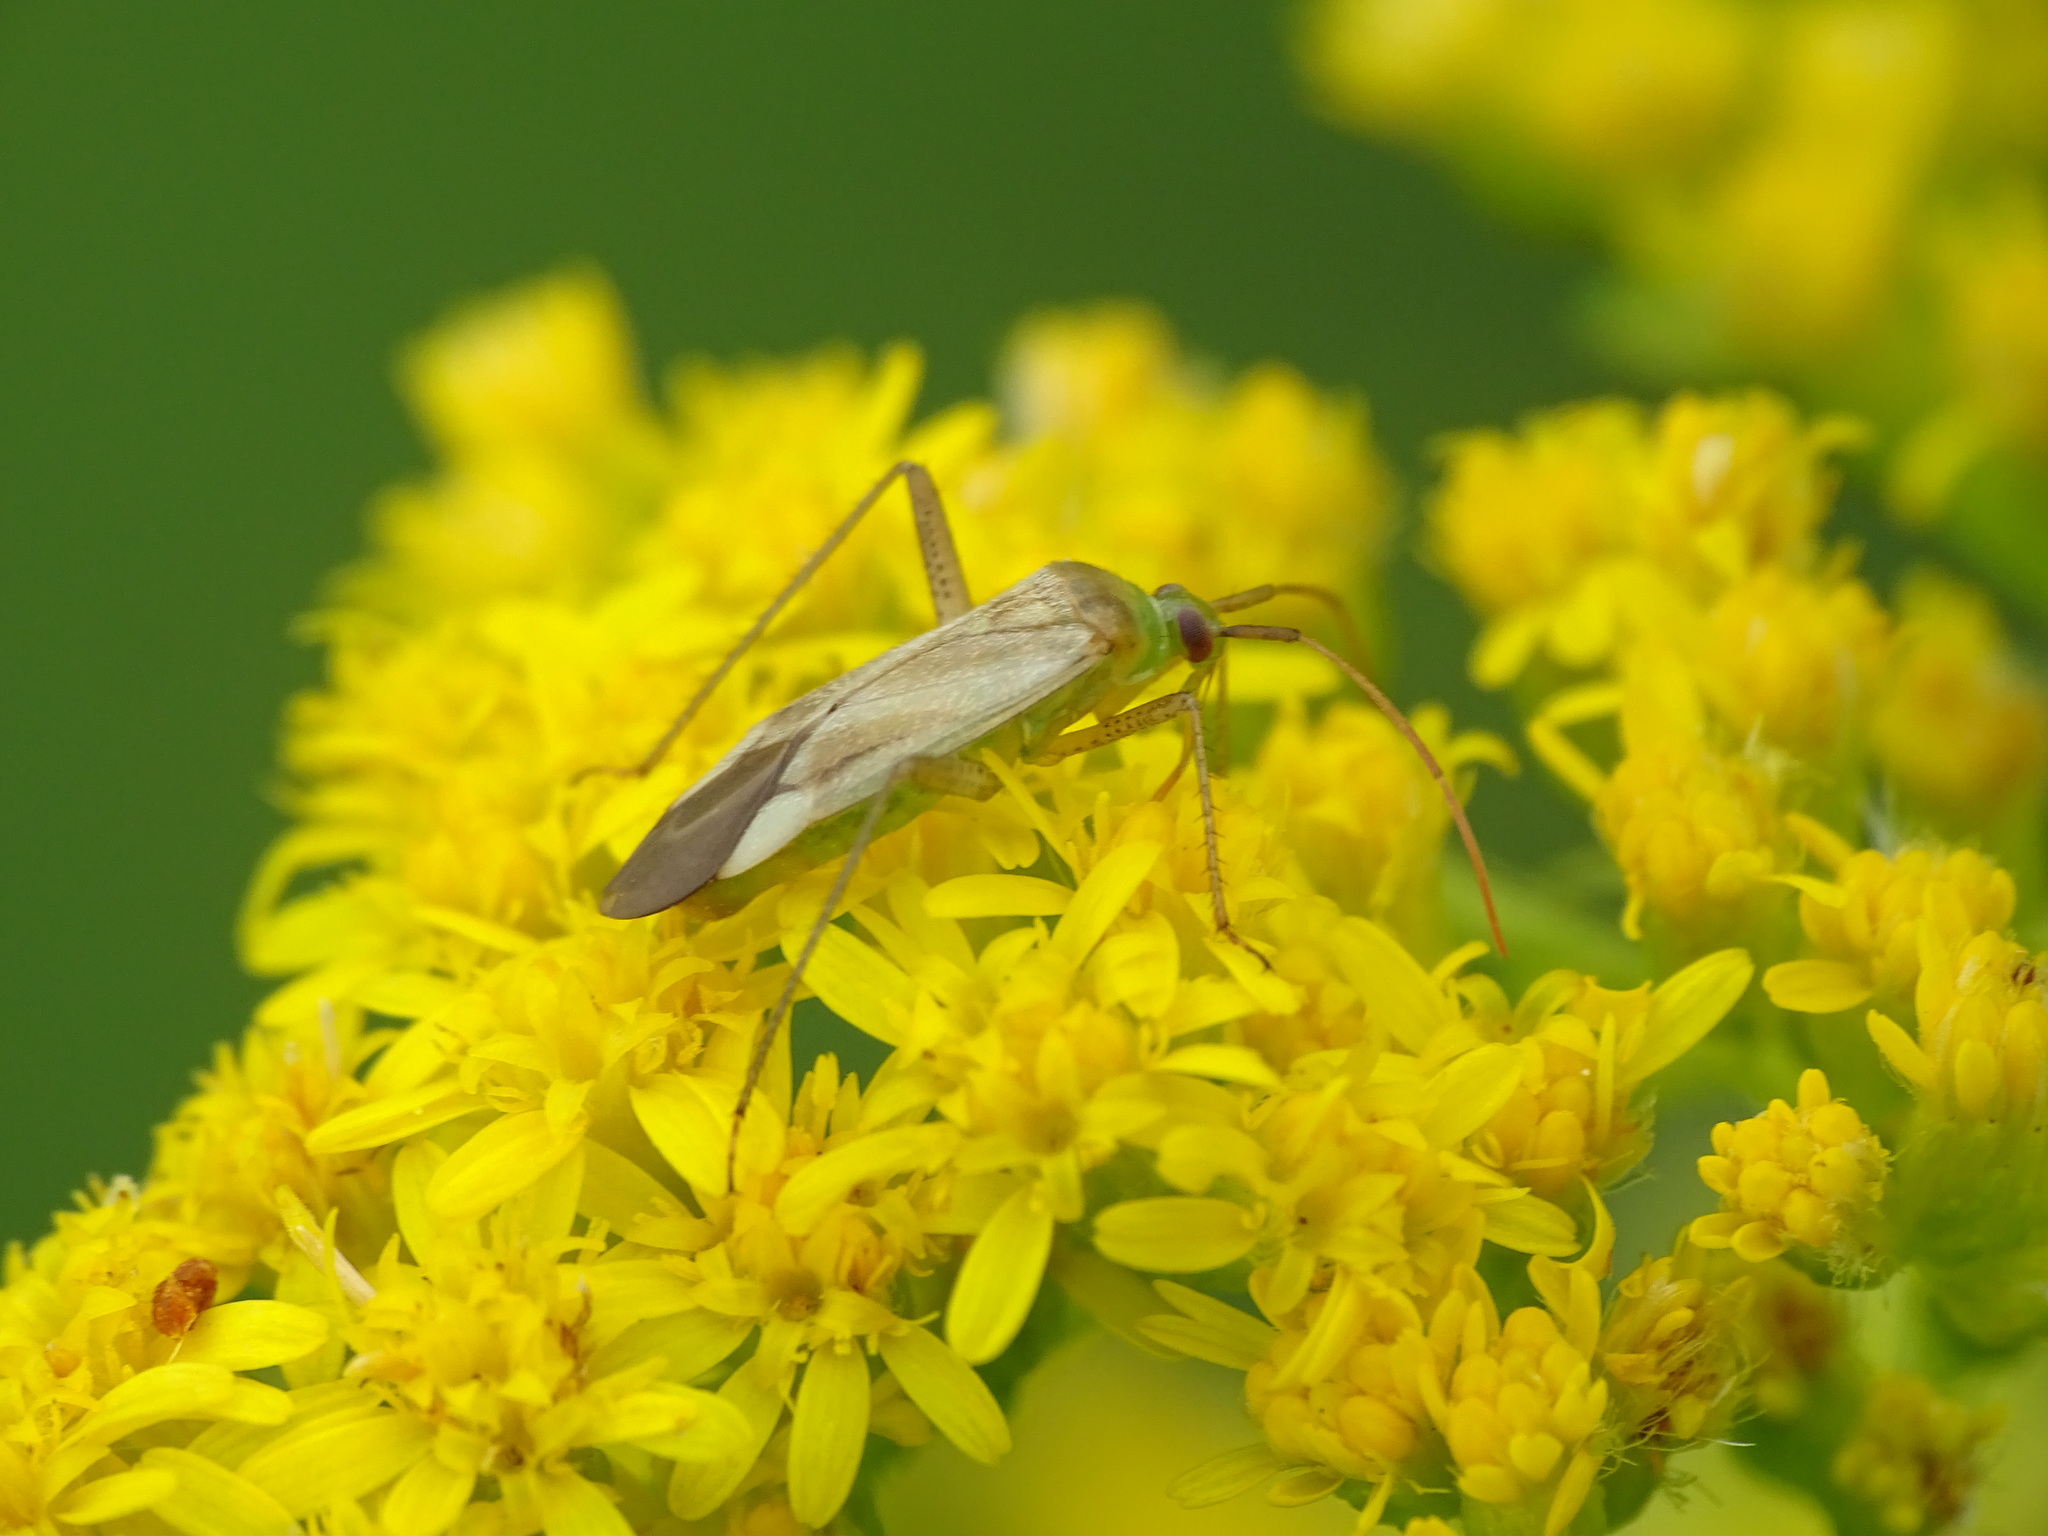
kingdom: Animalia
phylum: Arthropoda
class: Insecta
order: Hemiptera
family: Miridae
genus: Adelphocoris
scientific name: Adelphocoris lineolatus
